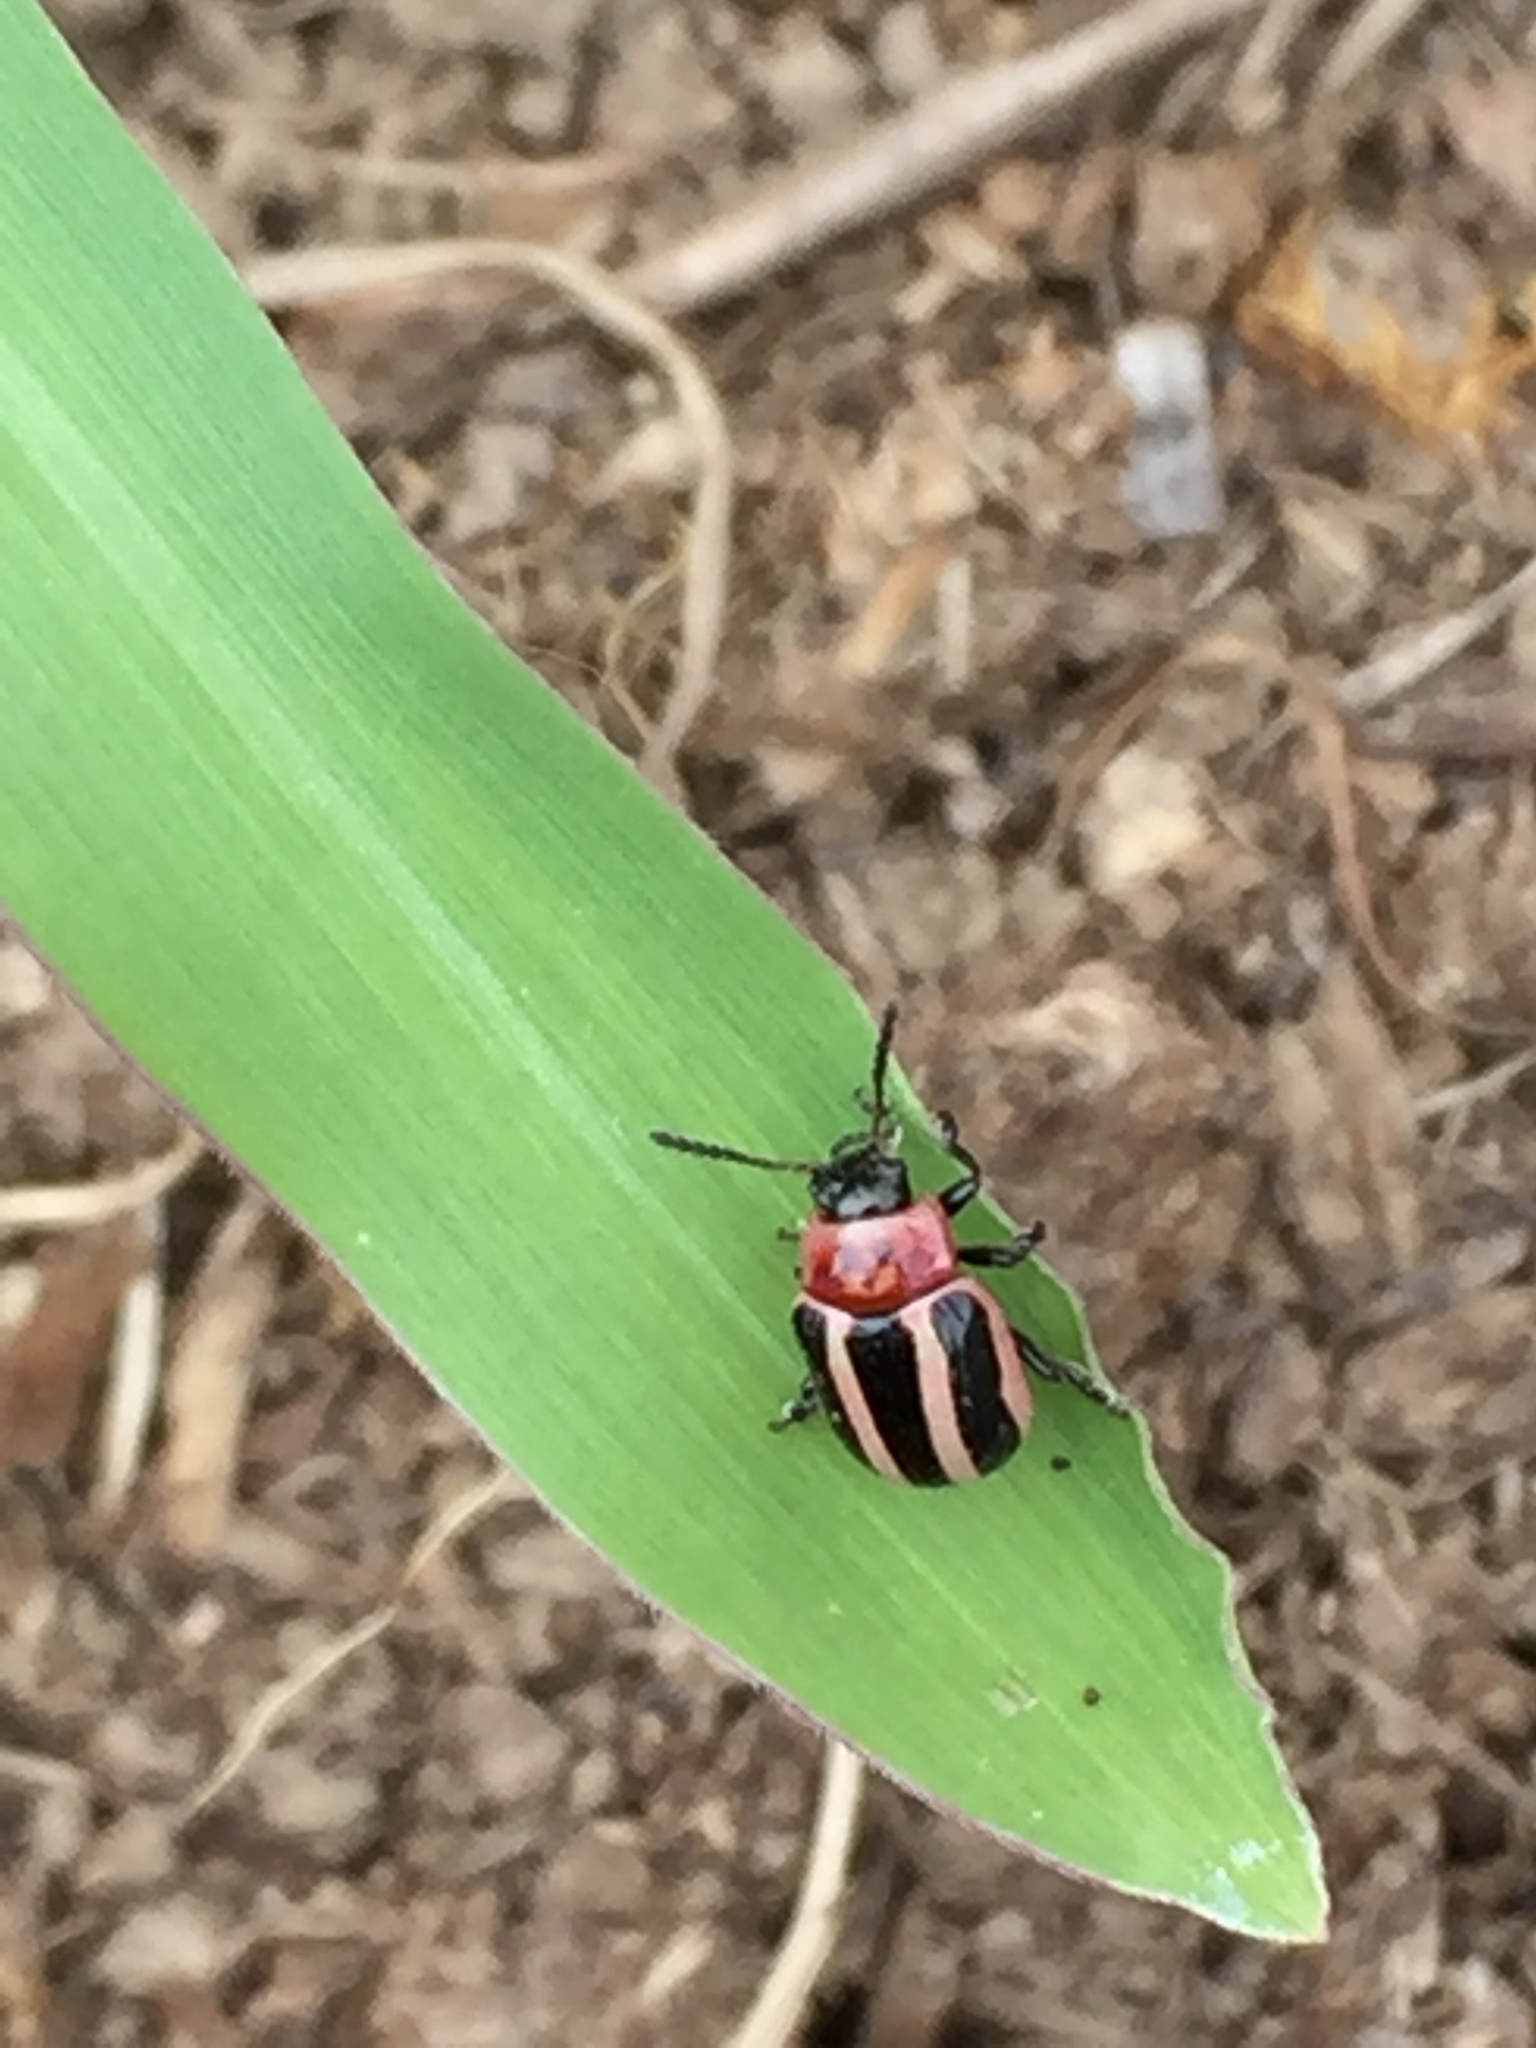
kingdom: Animalia
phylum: Arthropoda
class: Insecta
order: Coleoptera
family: Chrysomelidae
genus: Calligrapha
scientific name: Calligrapha californica
